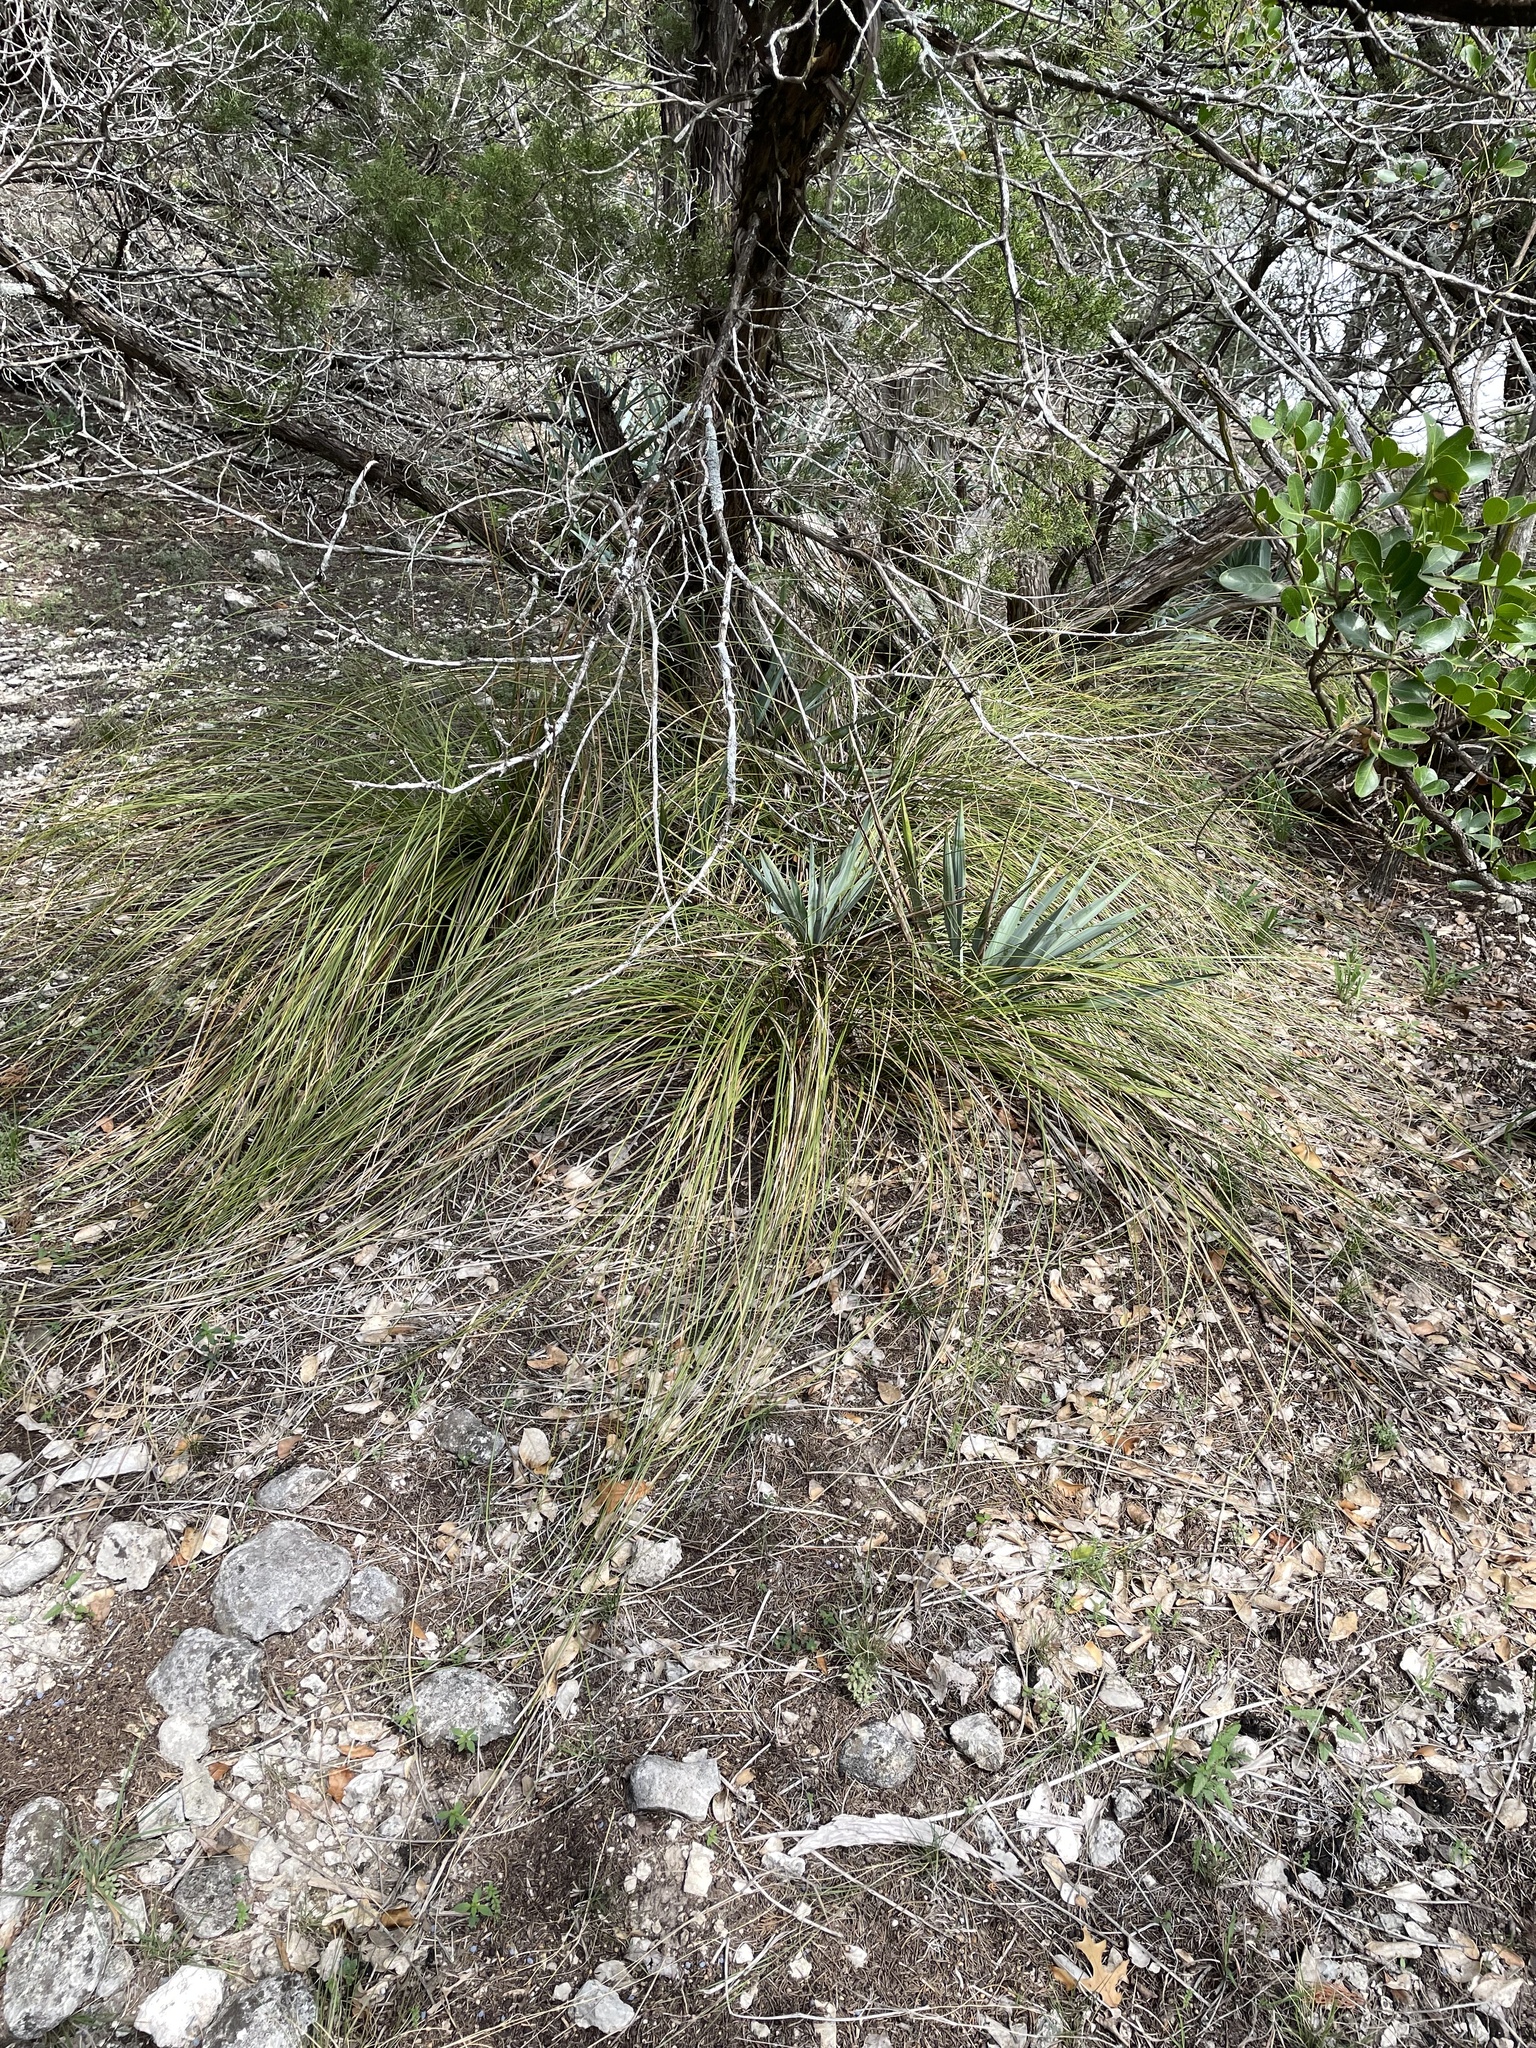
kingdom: Plantae
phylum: Tracheophyta
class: Liliopsida
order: Asparagales
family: Asparagaceae
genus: Nolina
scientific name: Nolina texana
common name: Texas sacahuiste
